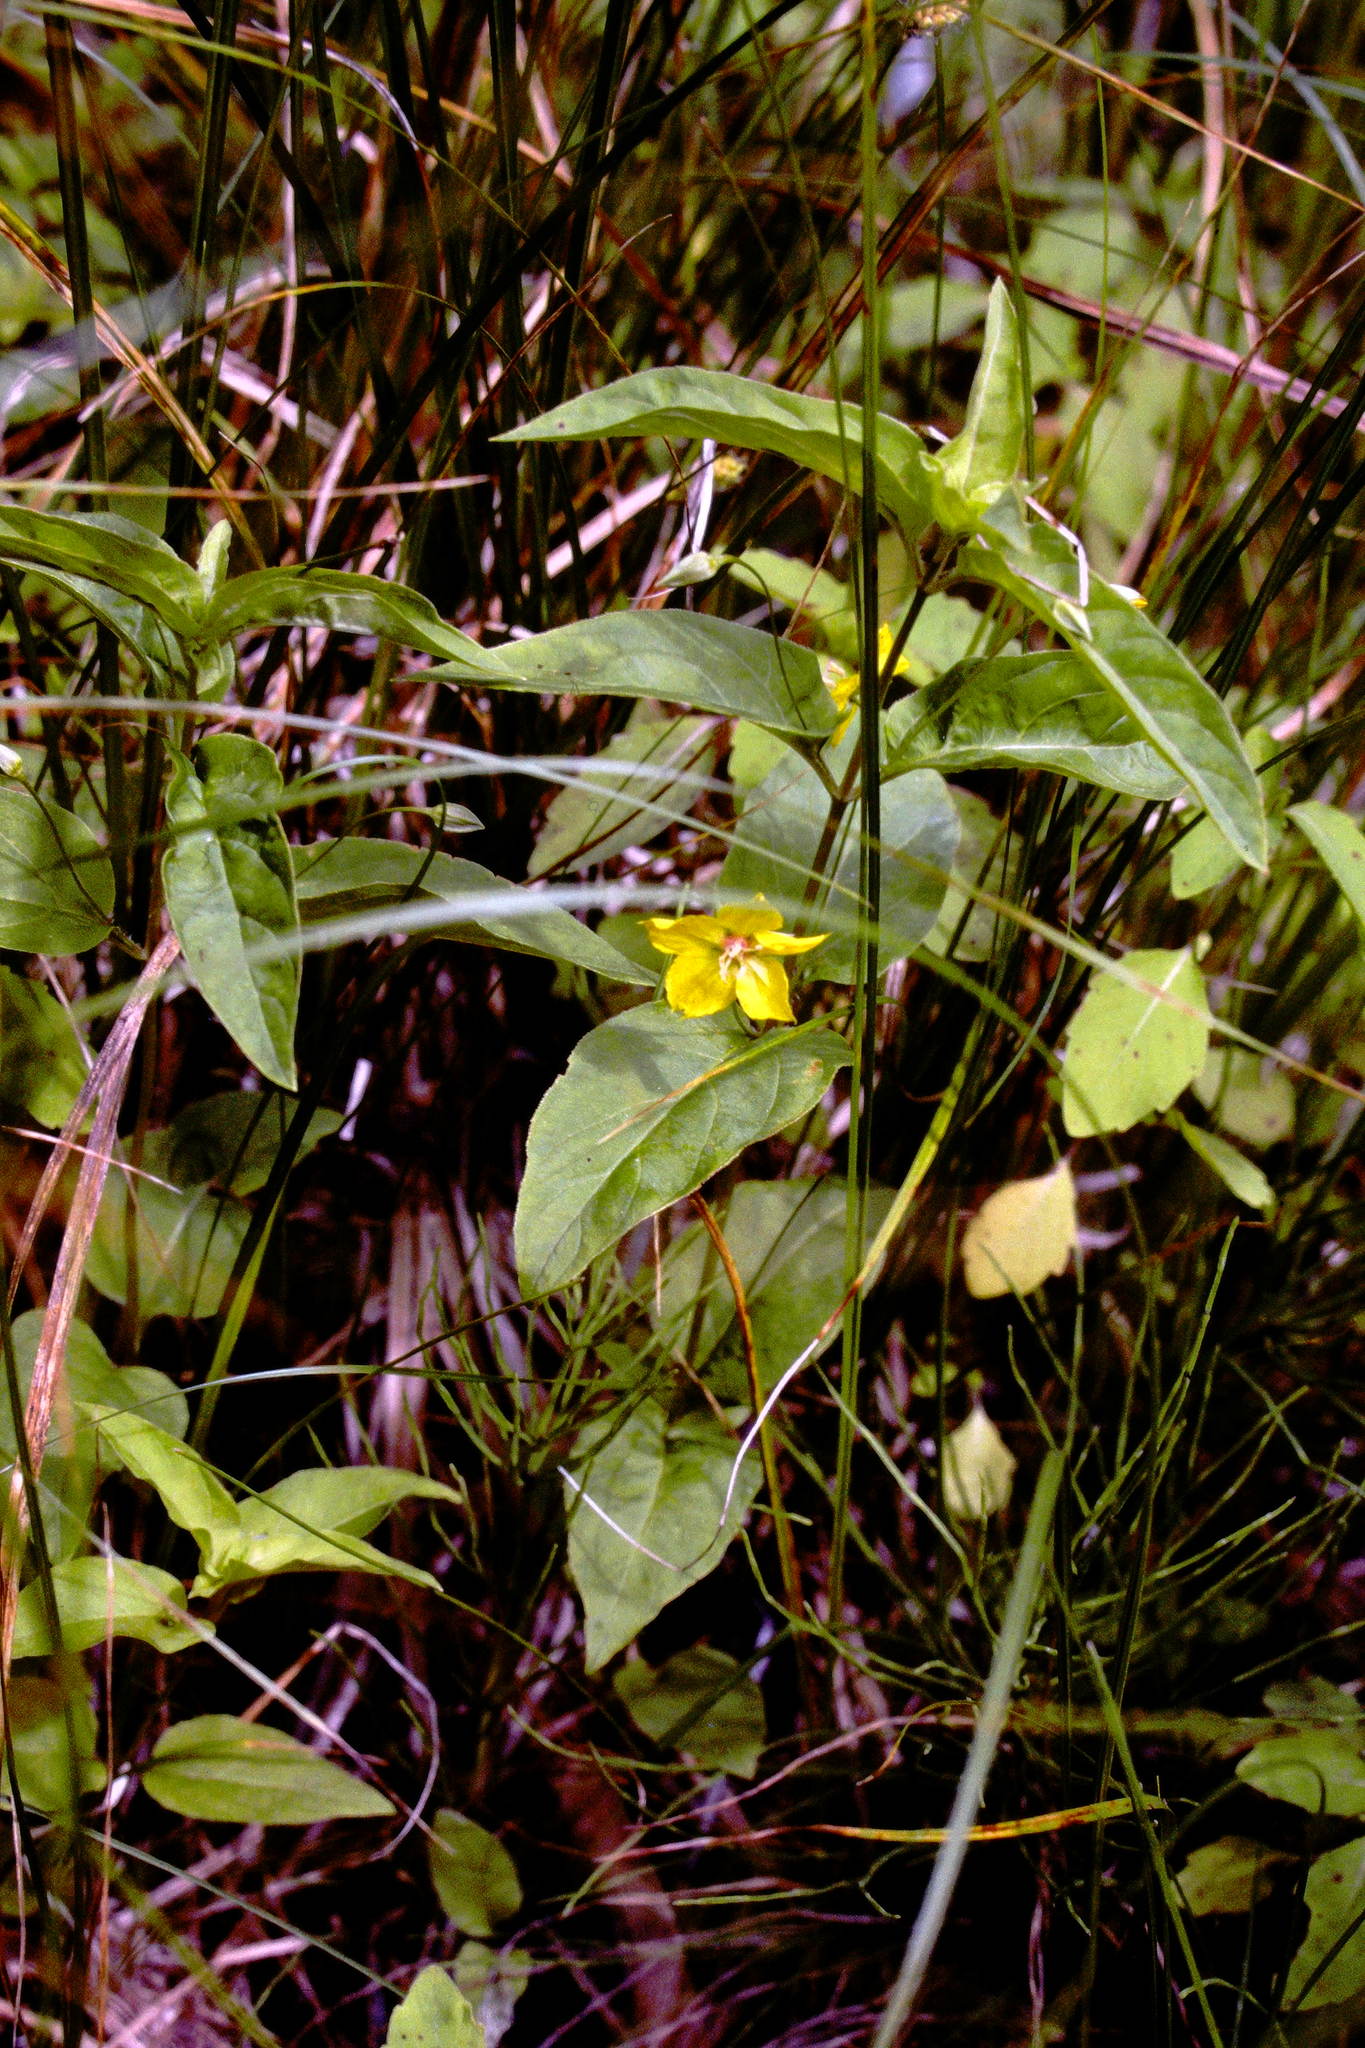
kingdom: Plantae
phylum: Tracheophyta
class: Magnoliopsida
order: Ericales
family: Primulaceae
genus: Lysimachia
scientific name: Lysimachia ciliata
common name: Fringed loosestrife
